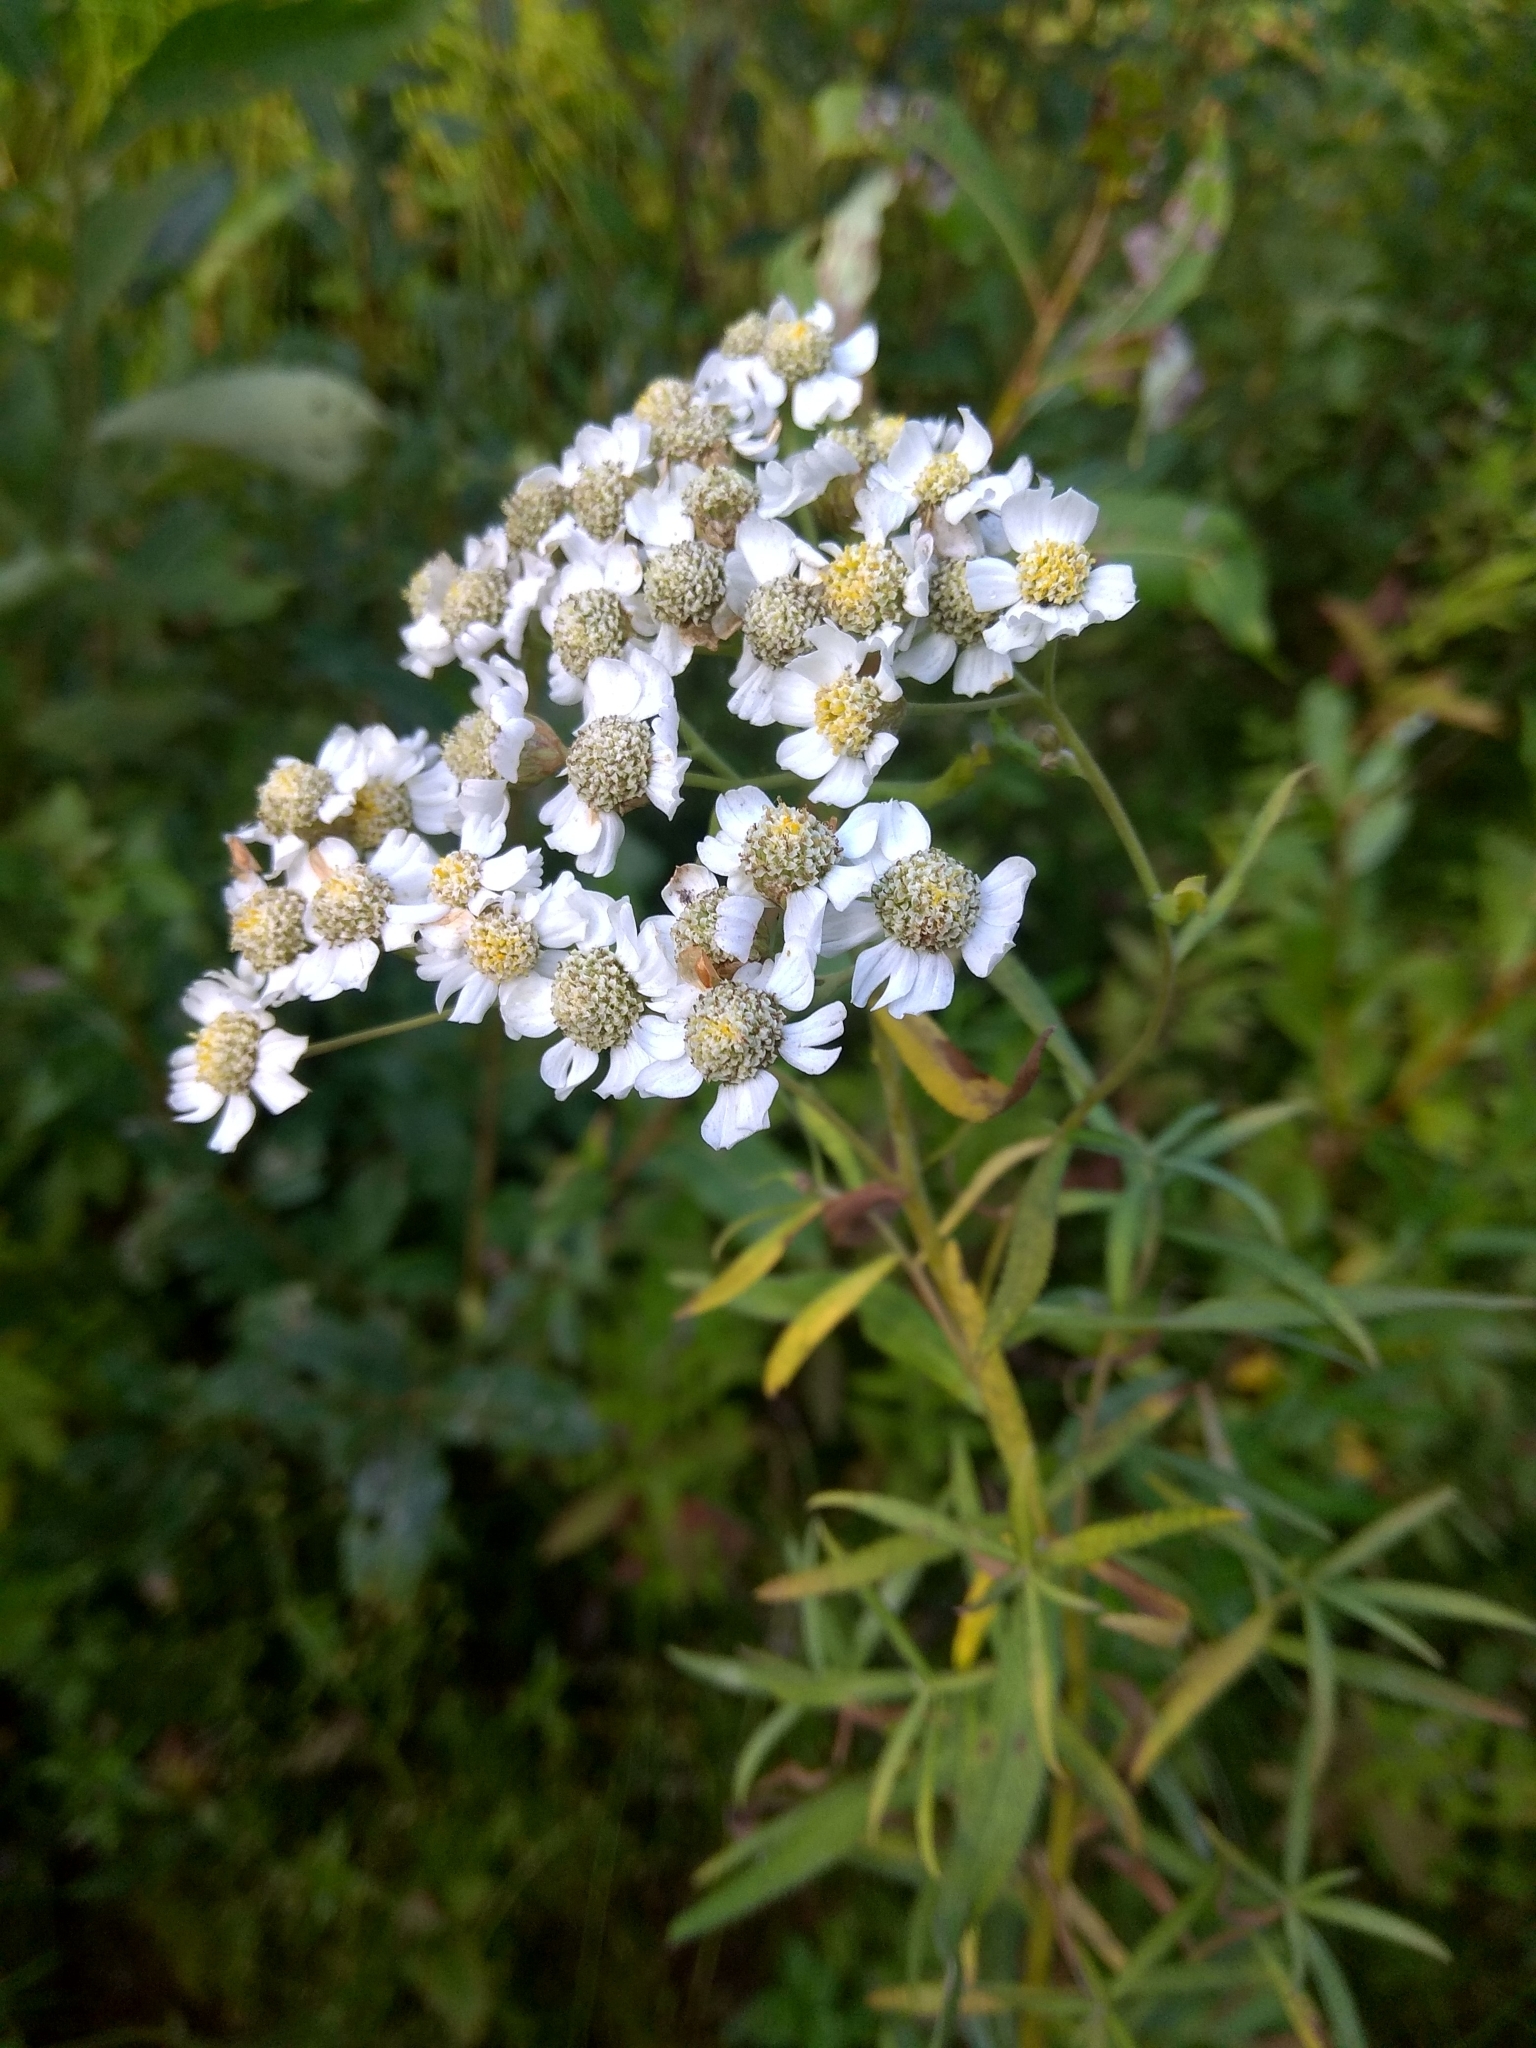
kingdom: Plantae
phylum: Tracheophyta
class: Magnoliopsida
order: Asterales
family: Asteraceae
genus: Achillea
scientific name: Achillea salicifolia
